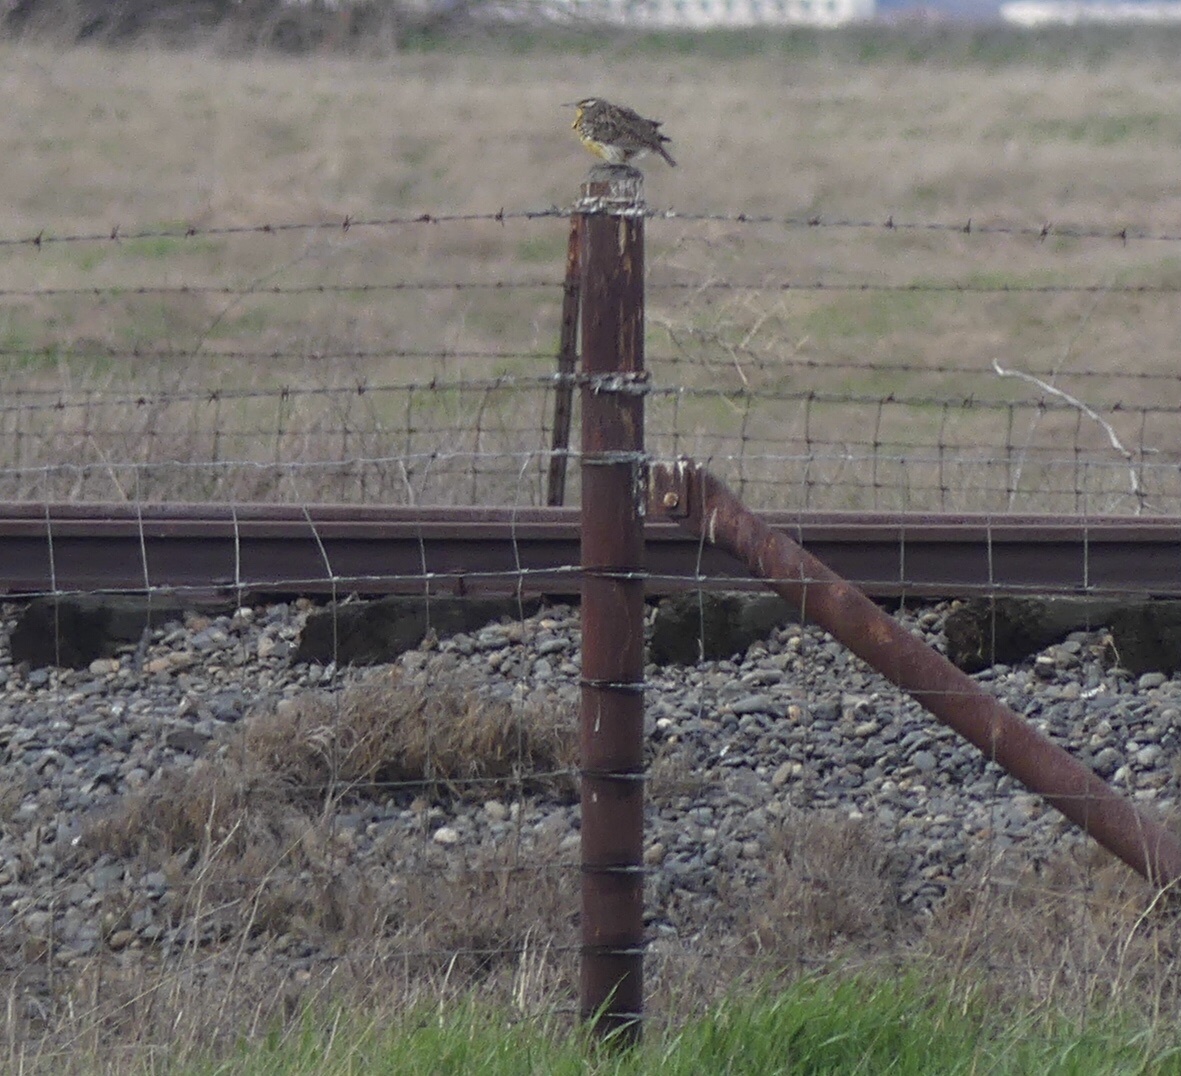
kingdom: Animalia
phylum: Chordata
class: Aves
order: Passeriformes
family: Icteridae
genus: Sturnella
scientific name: Sturnella neglecta
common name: Western meadowlark
